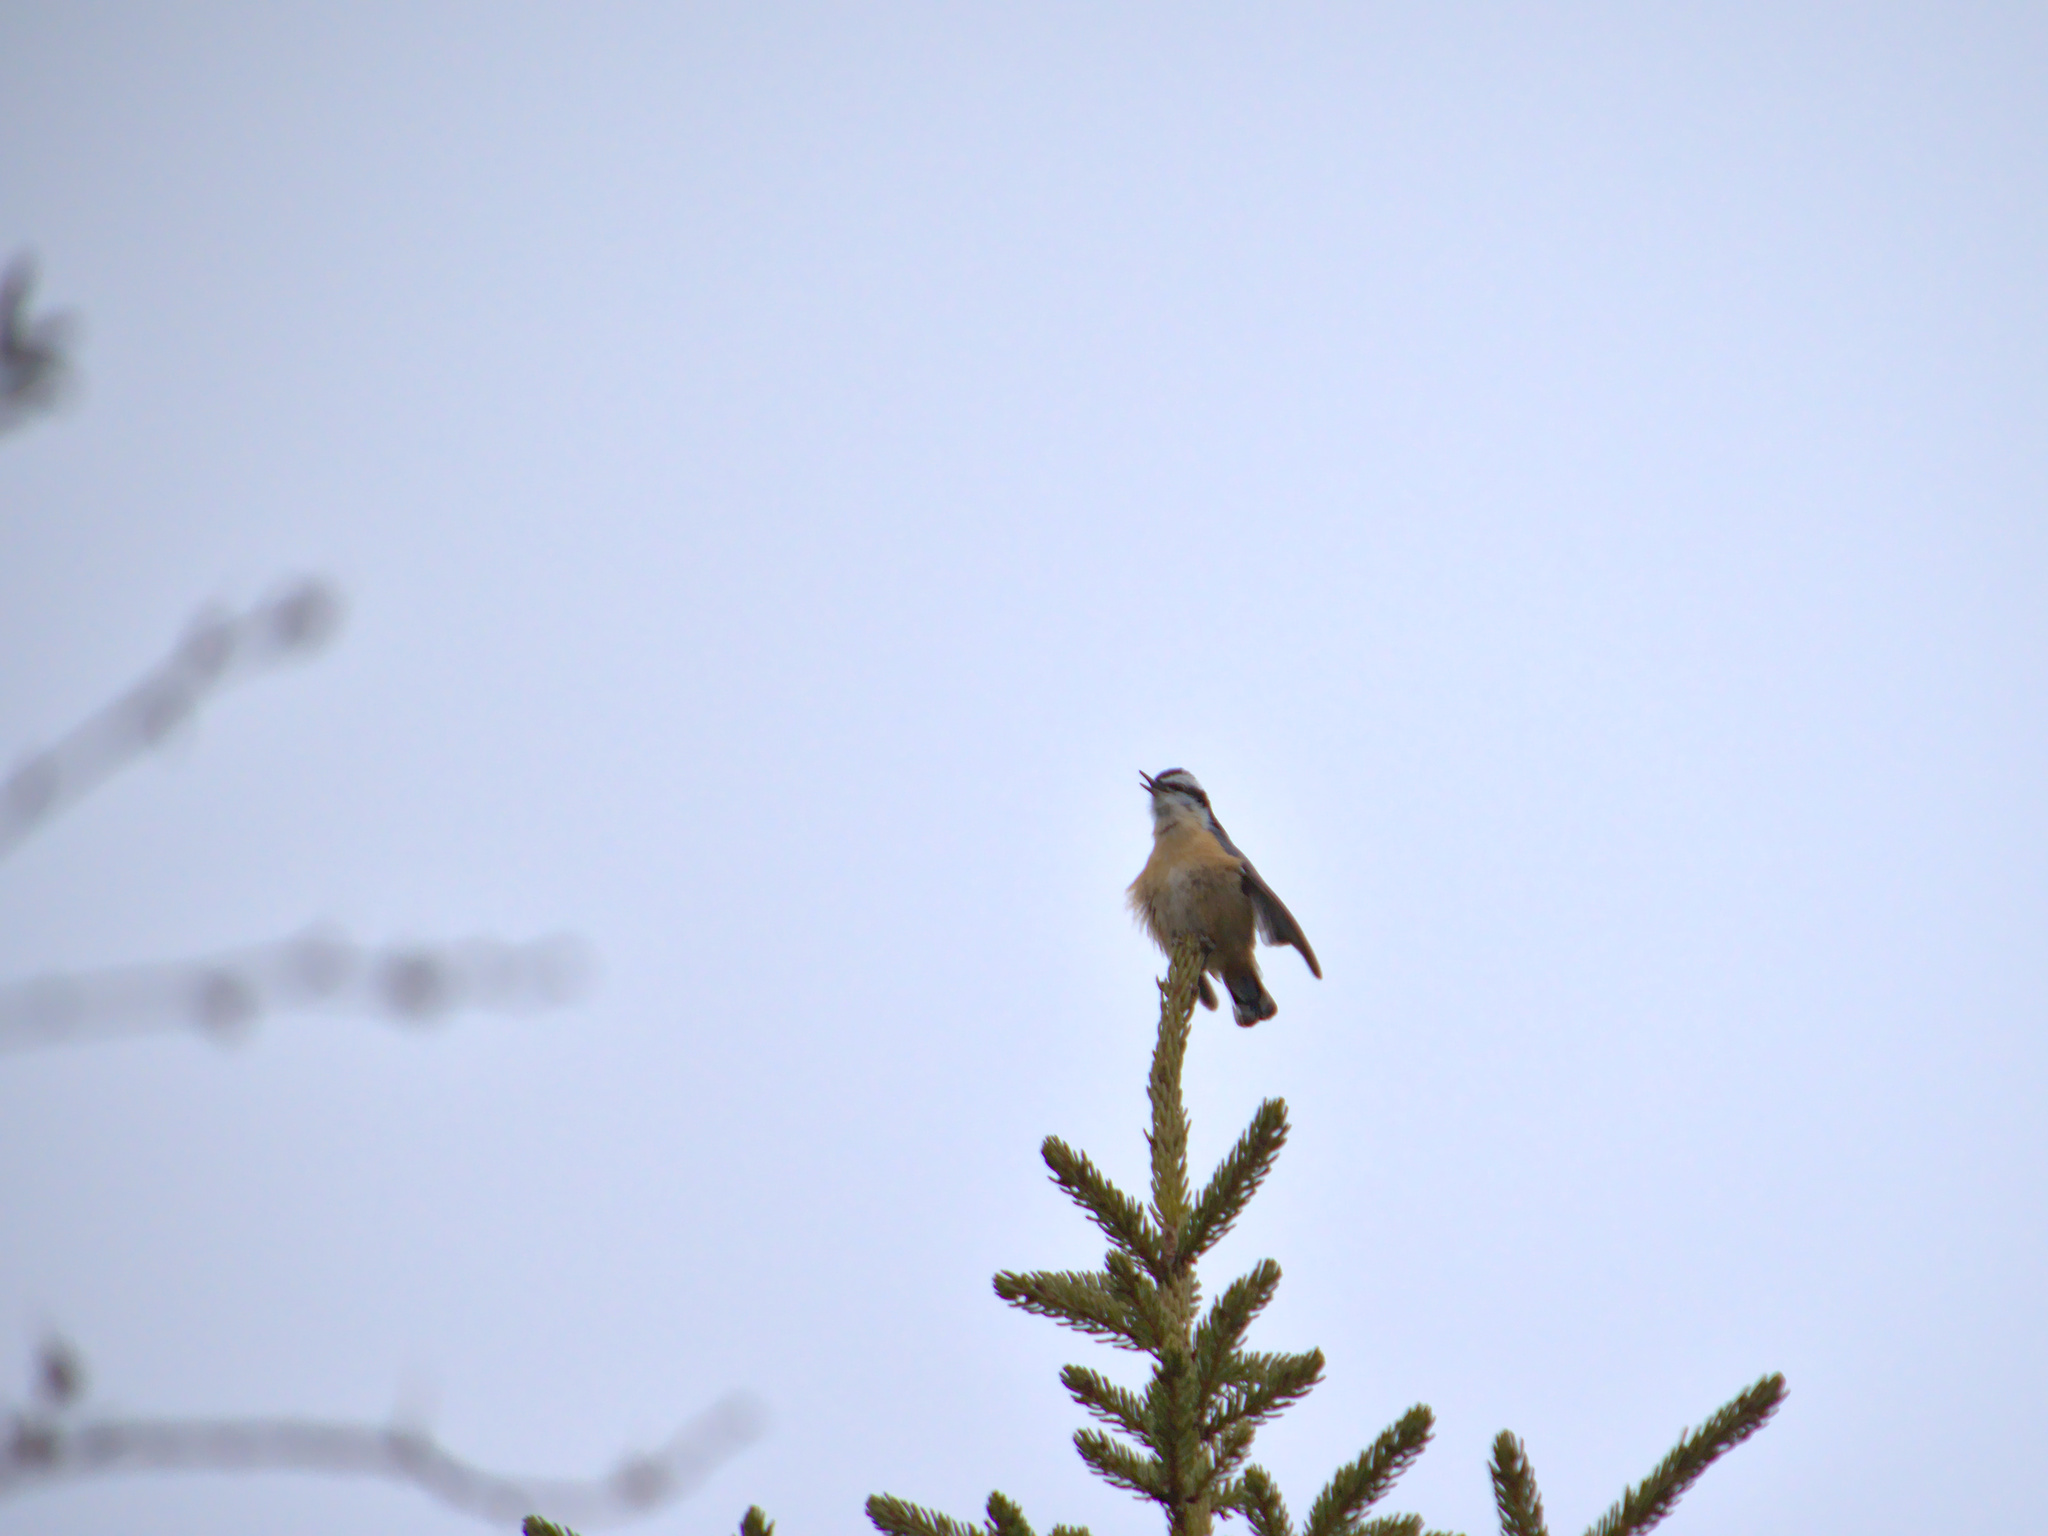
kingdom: Animalia
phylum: Chordata
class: Aves
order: Passeriformes
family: Sittidae
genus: Sitta
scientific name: Sitta canadensis
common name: Red-breasted nuthatch
